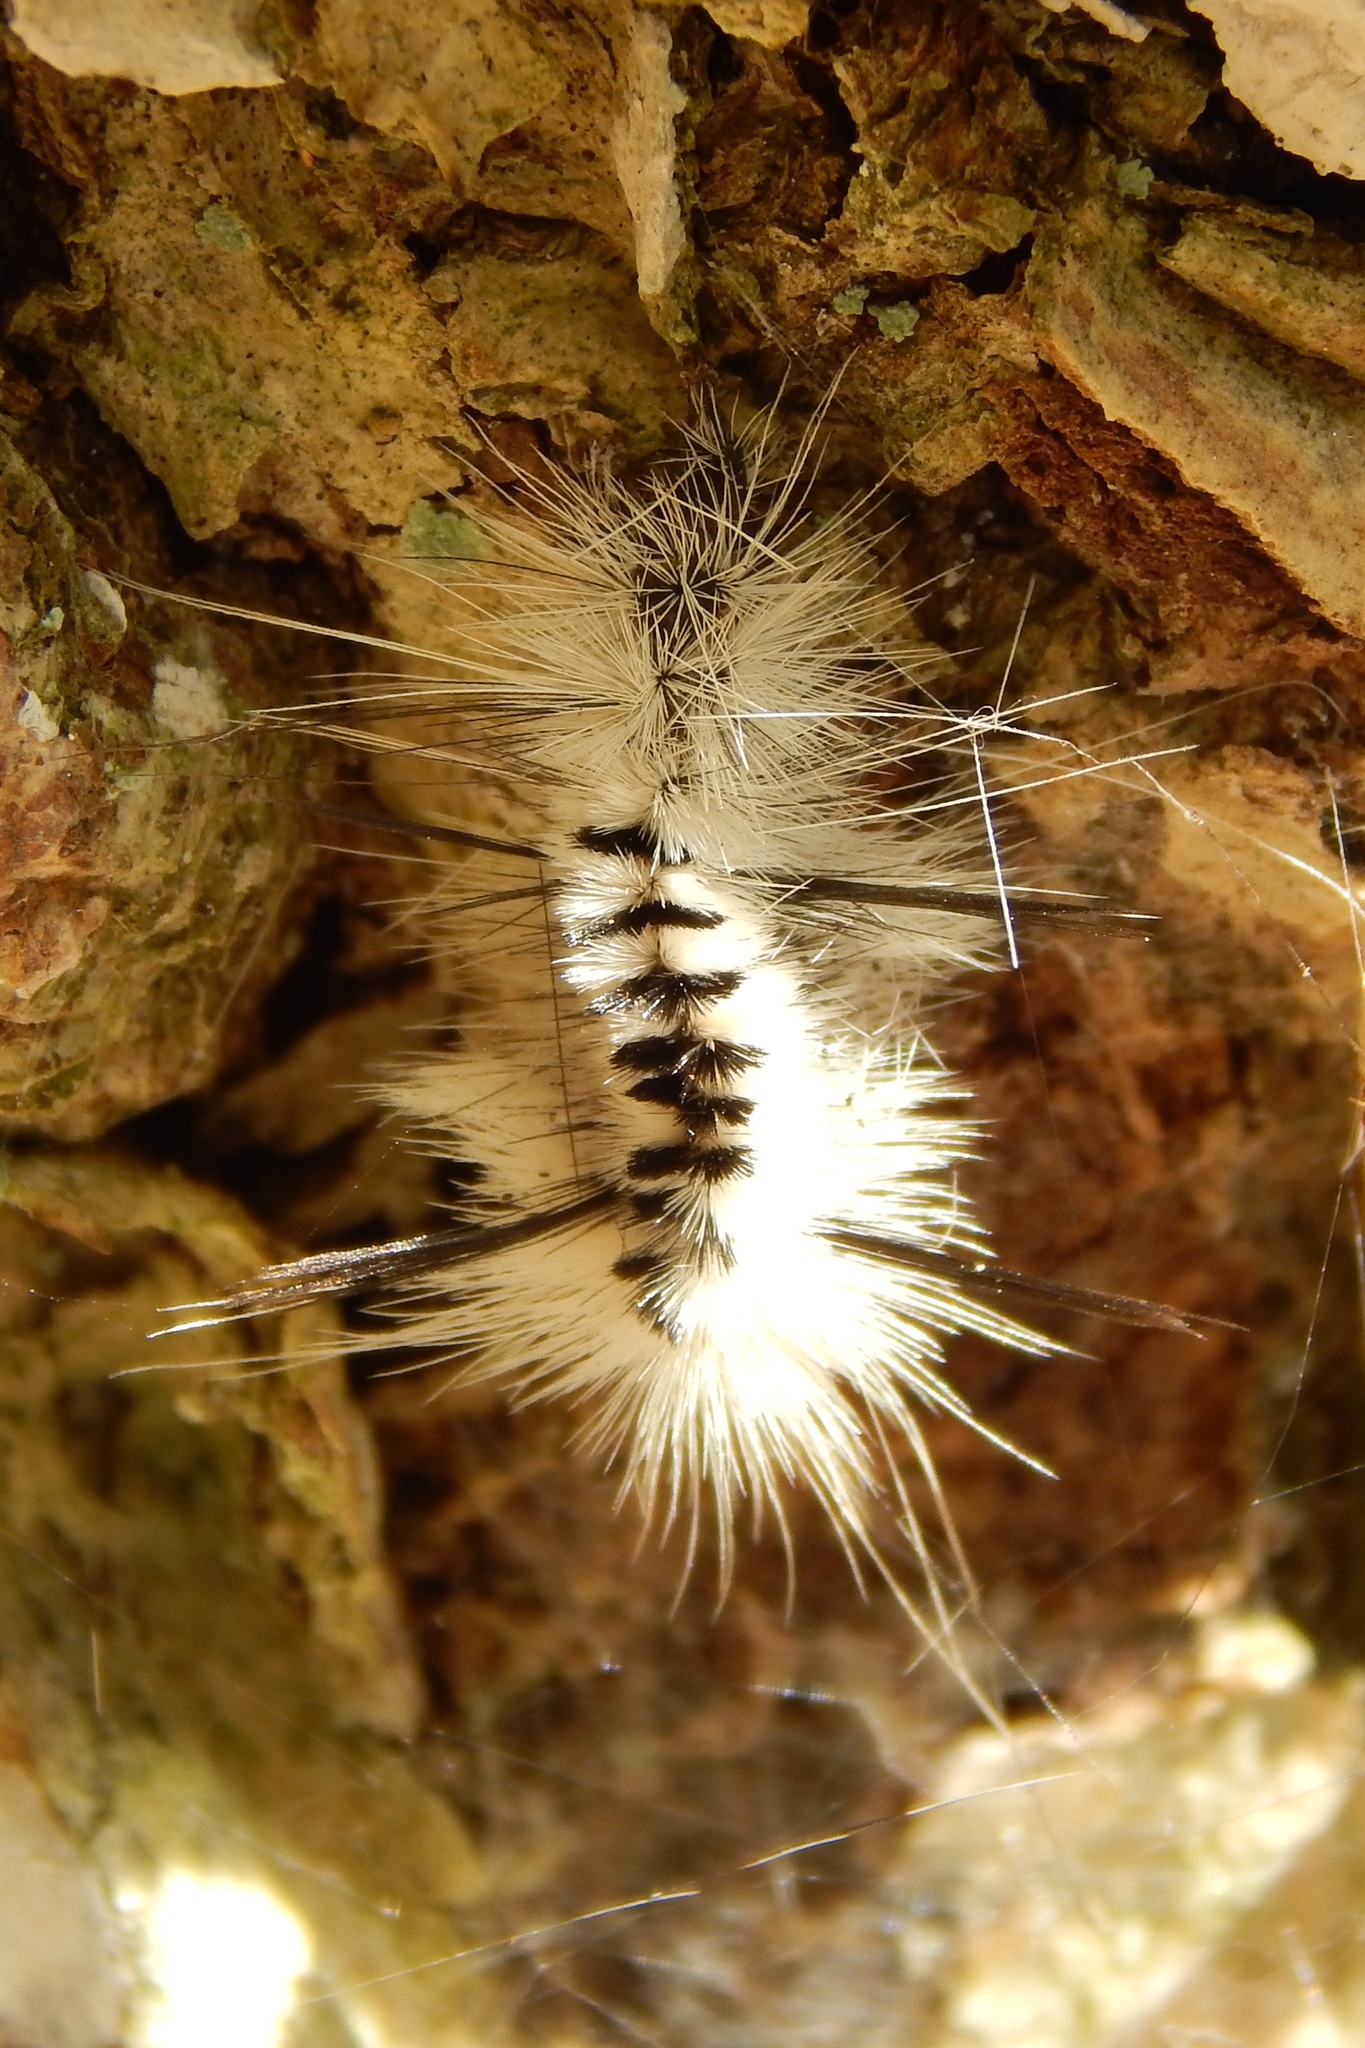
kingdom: Animalia
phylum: Arthropoda
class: Insecta
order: Lepidoptera
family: Erebidae
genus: Lophocampa
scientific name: Lophocampa caryae
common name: Hickory tussock moth
